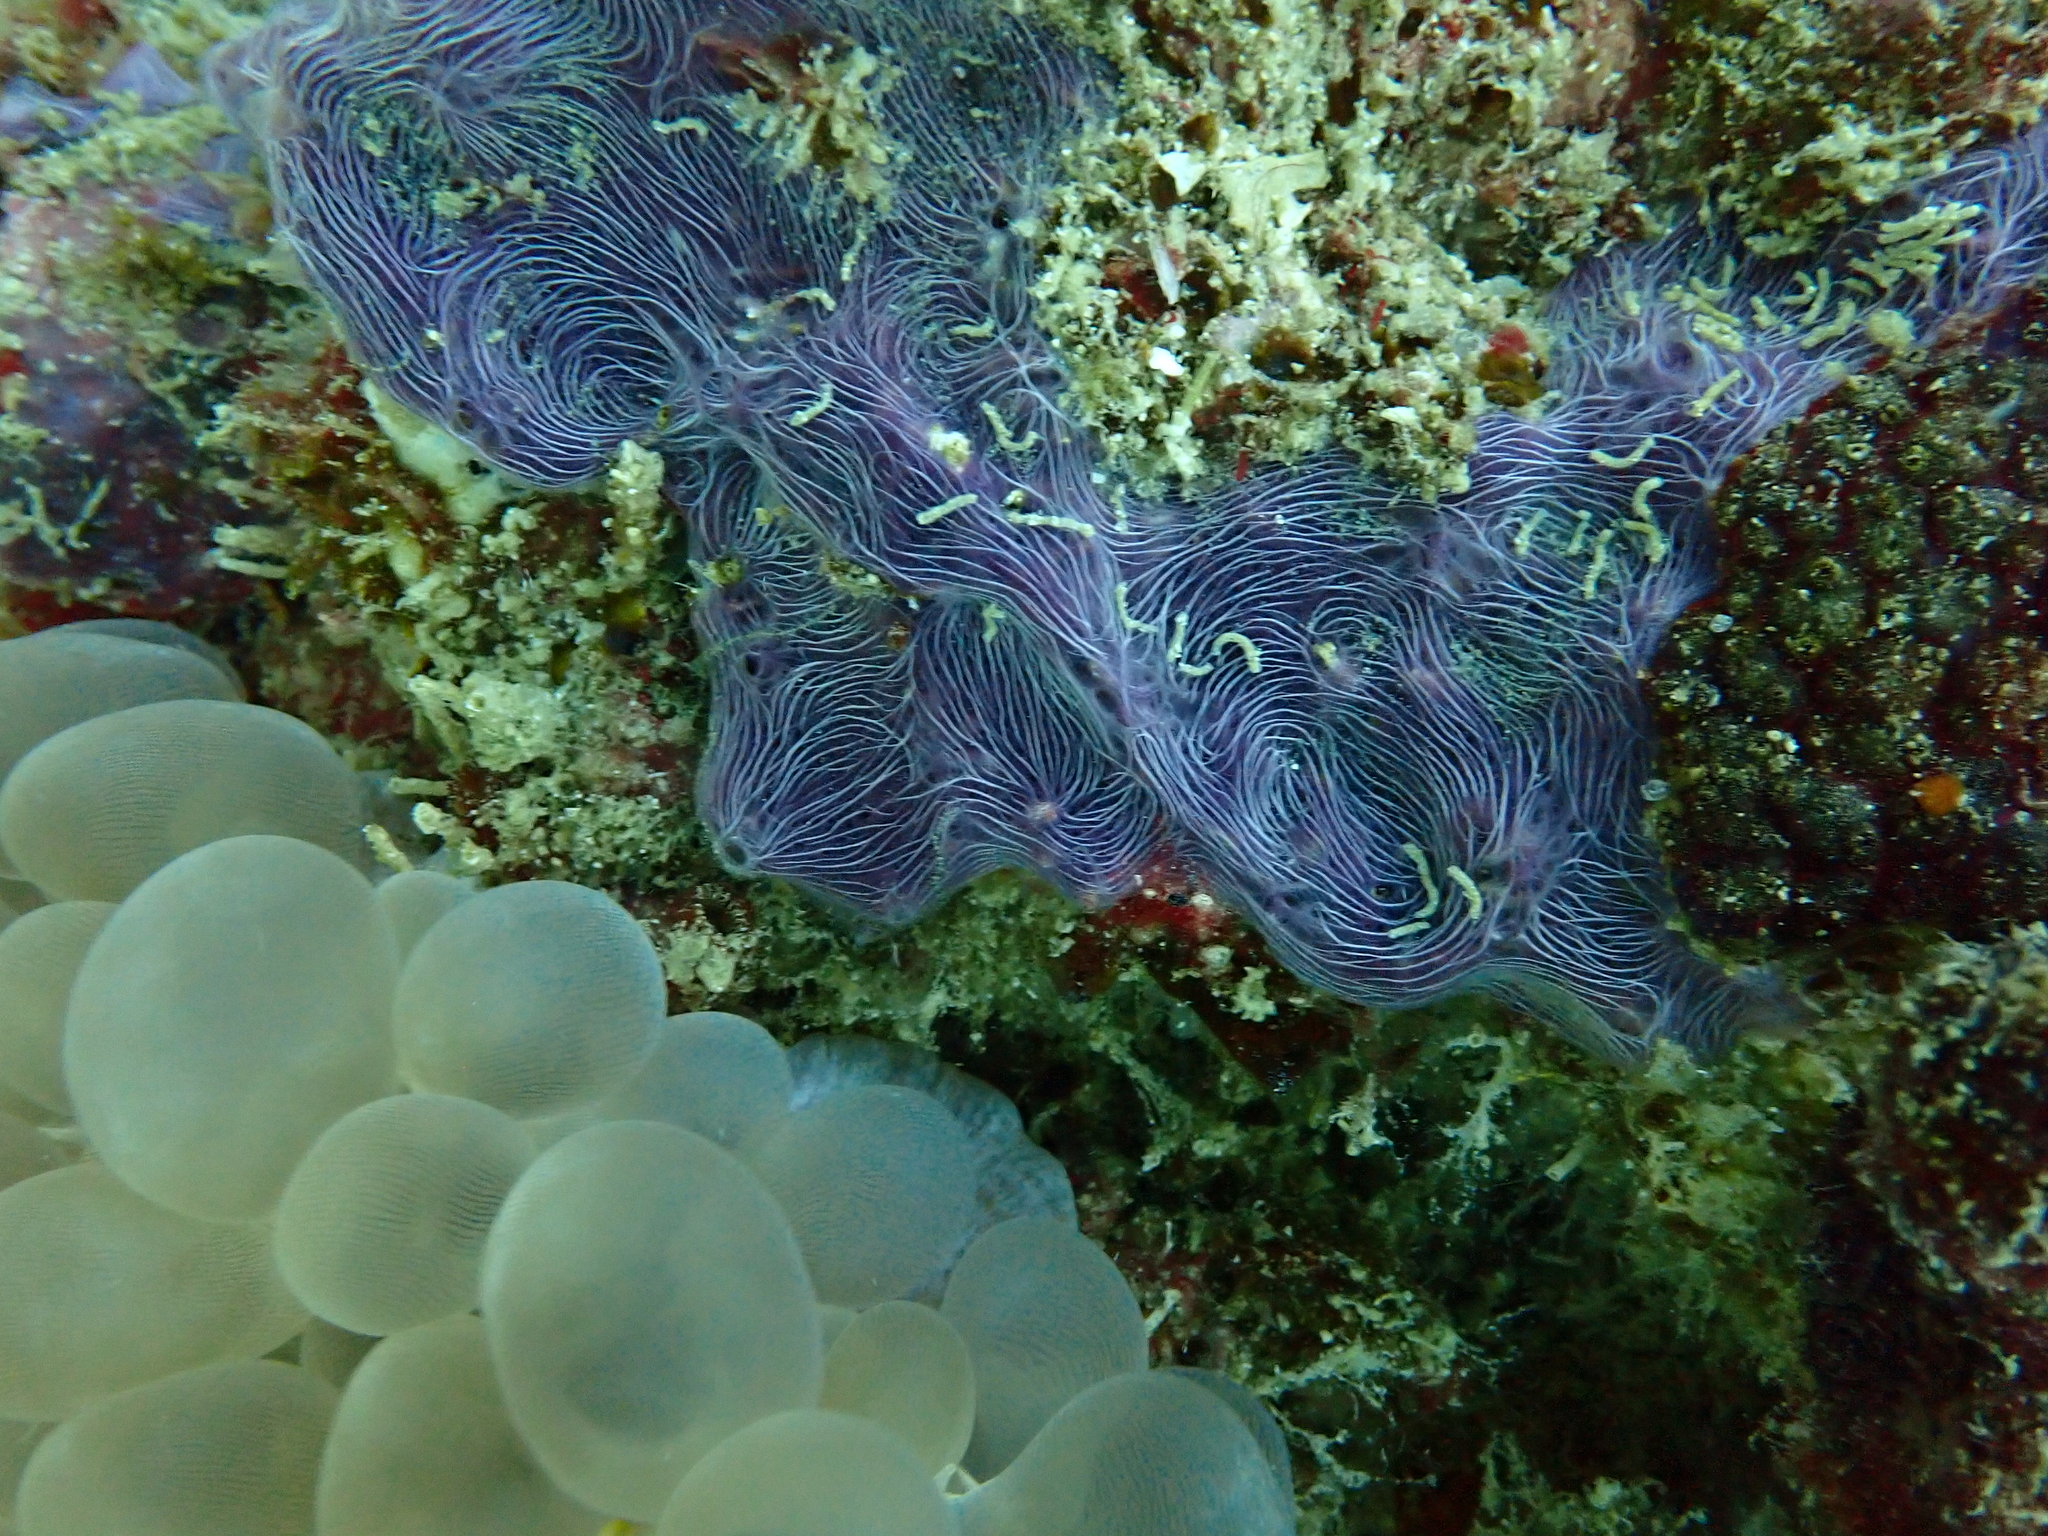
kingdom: Animalia
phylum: Porifera
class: Demospongiae
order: Haplosclerida
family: Chalinidae
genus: Chalinula
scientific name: Chalinula nematifera
